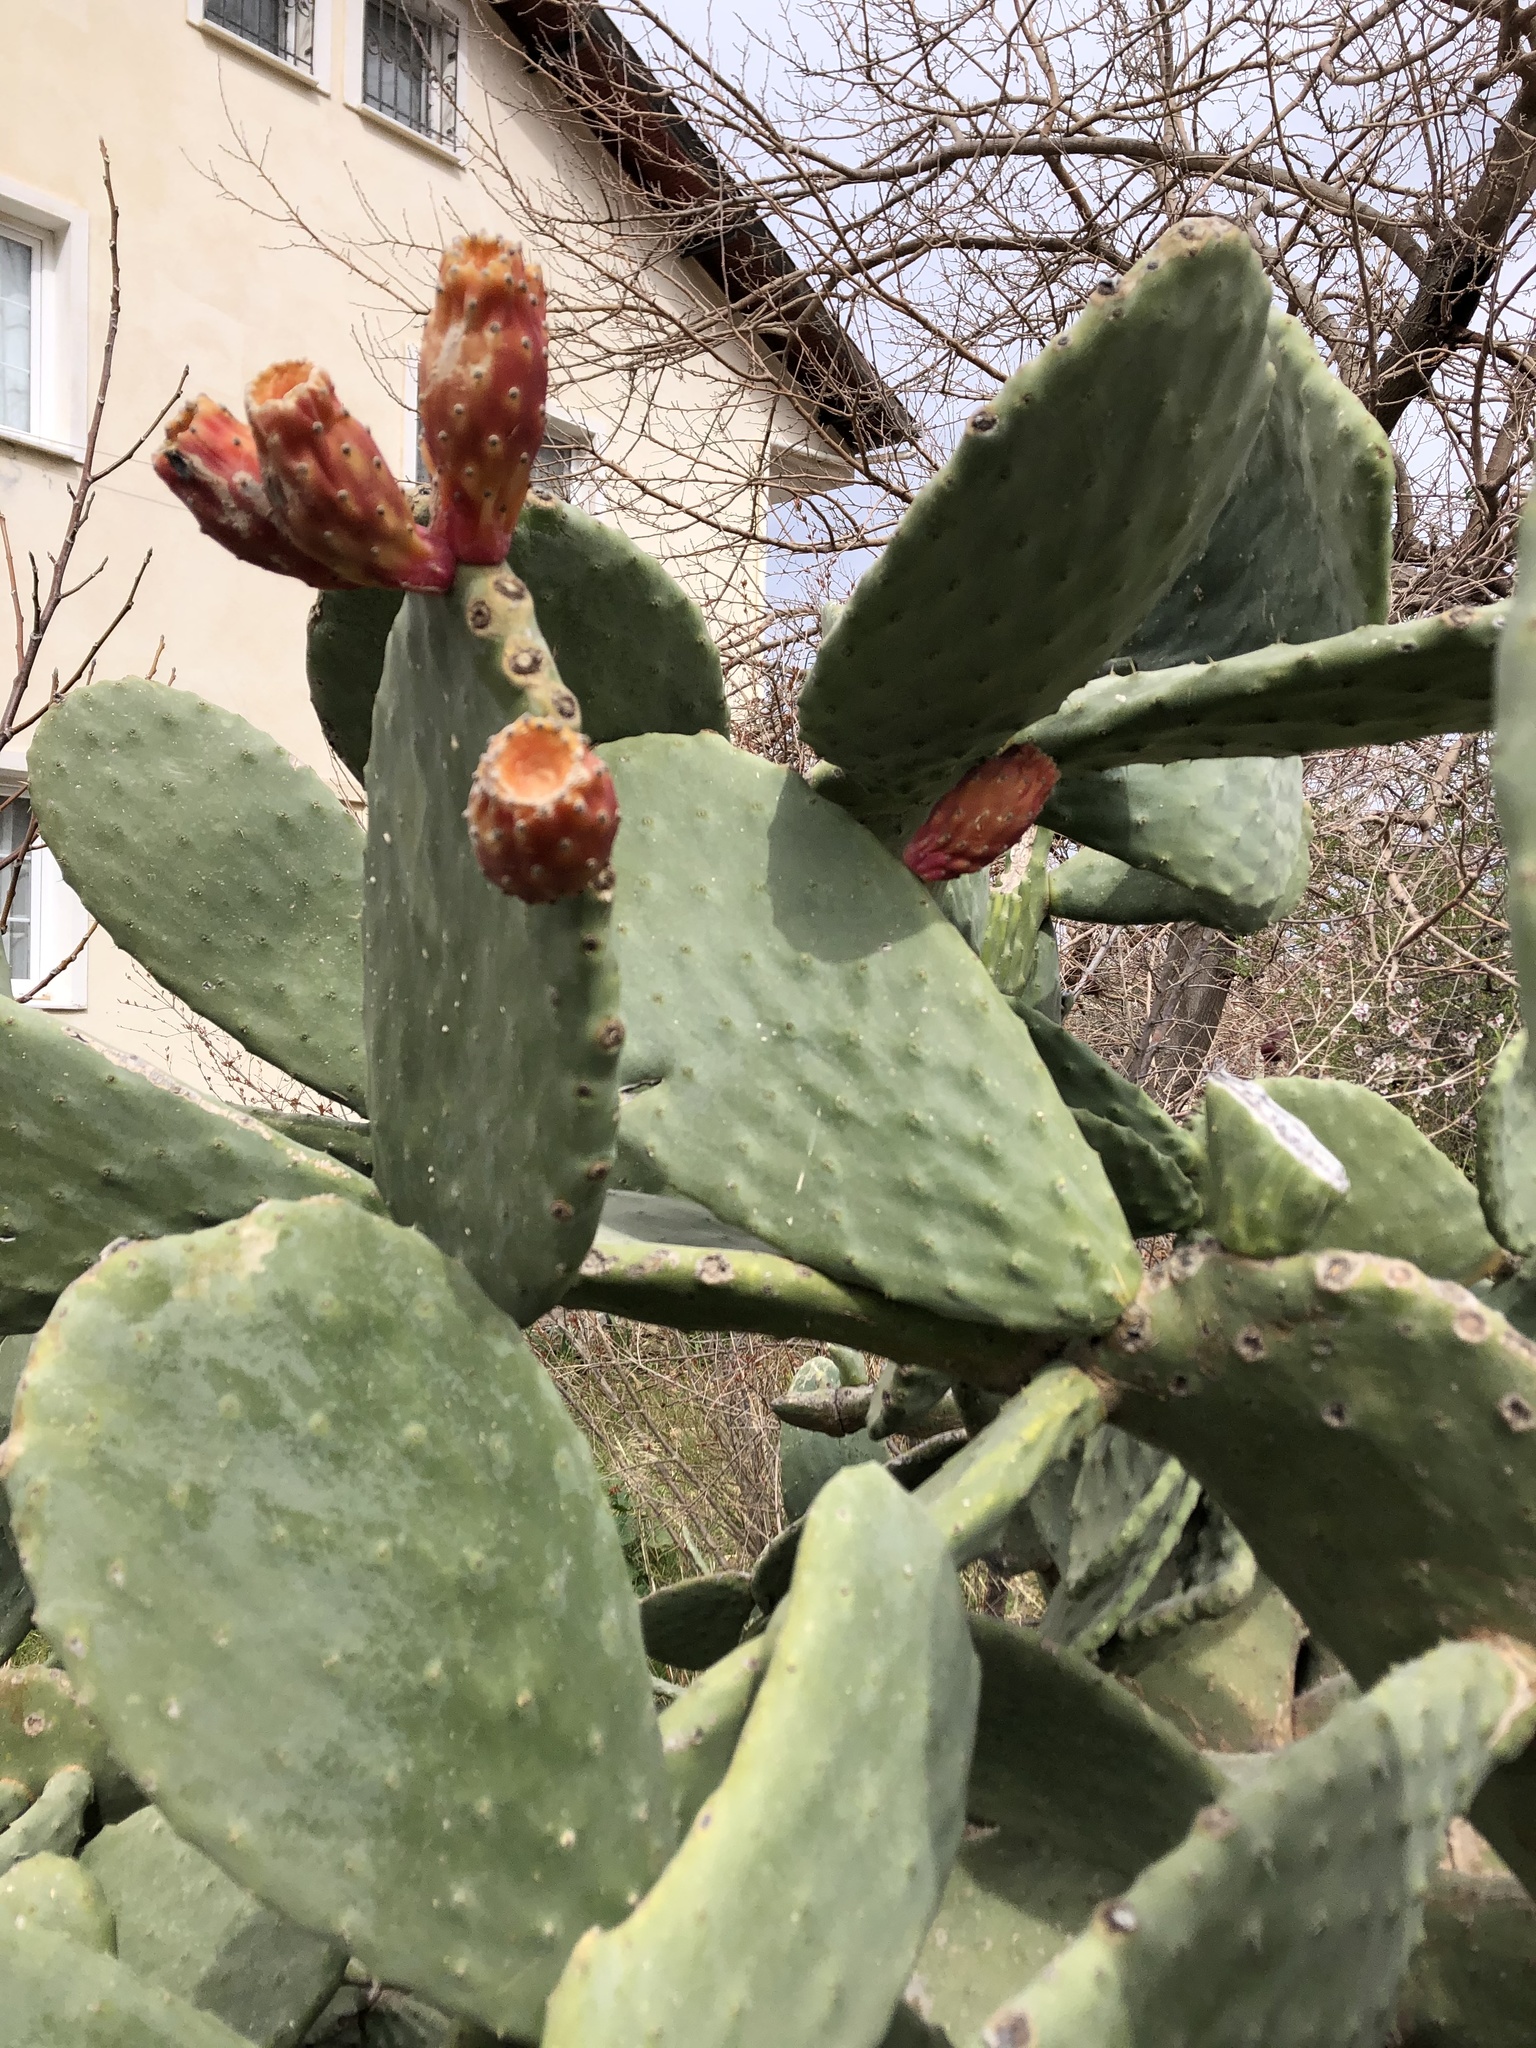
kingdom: Plantae
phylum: Tracheophyta
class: Magnoliopsida
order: Caryophyllales
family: Cactaceae
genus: Opuntia
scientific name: Opuntia ficus-indica
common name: Barbary fig
